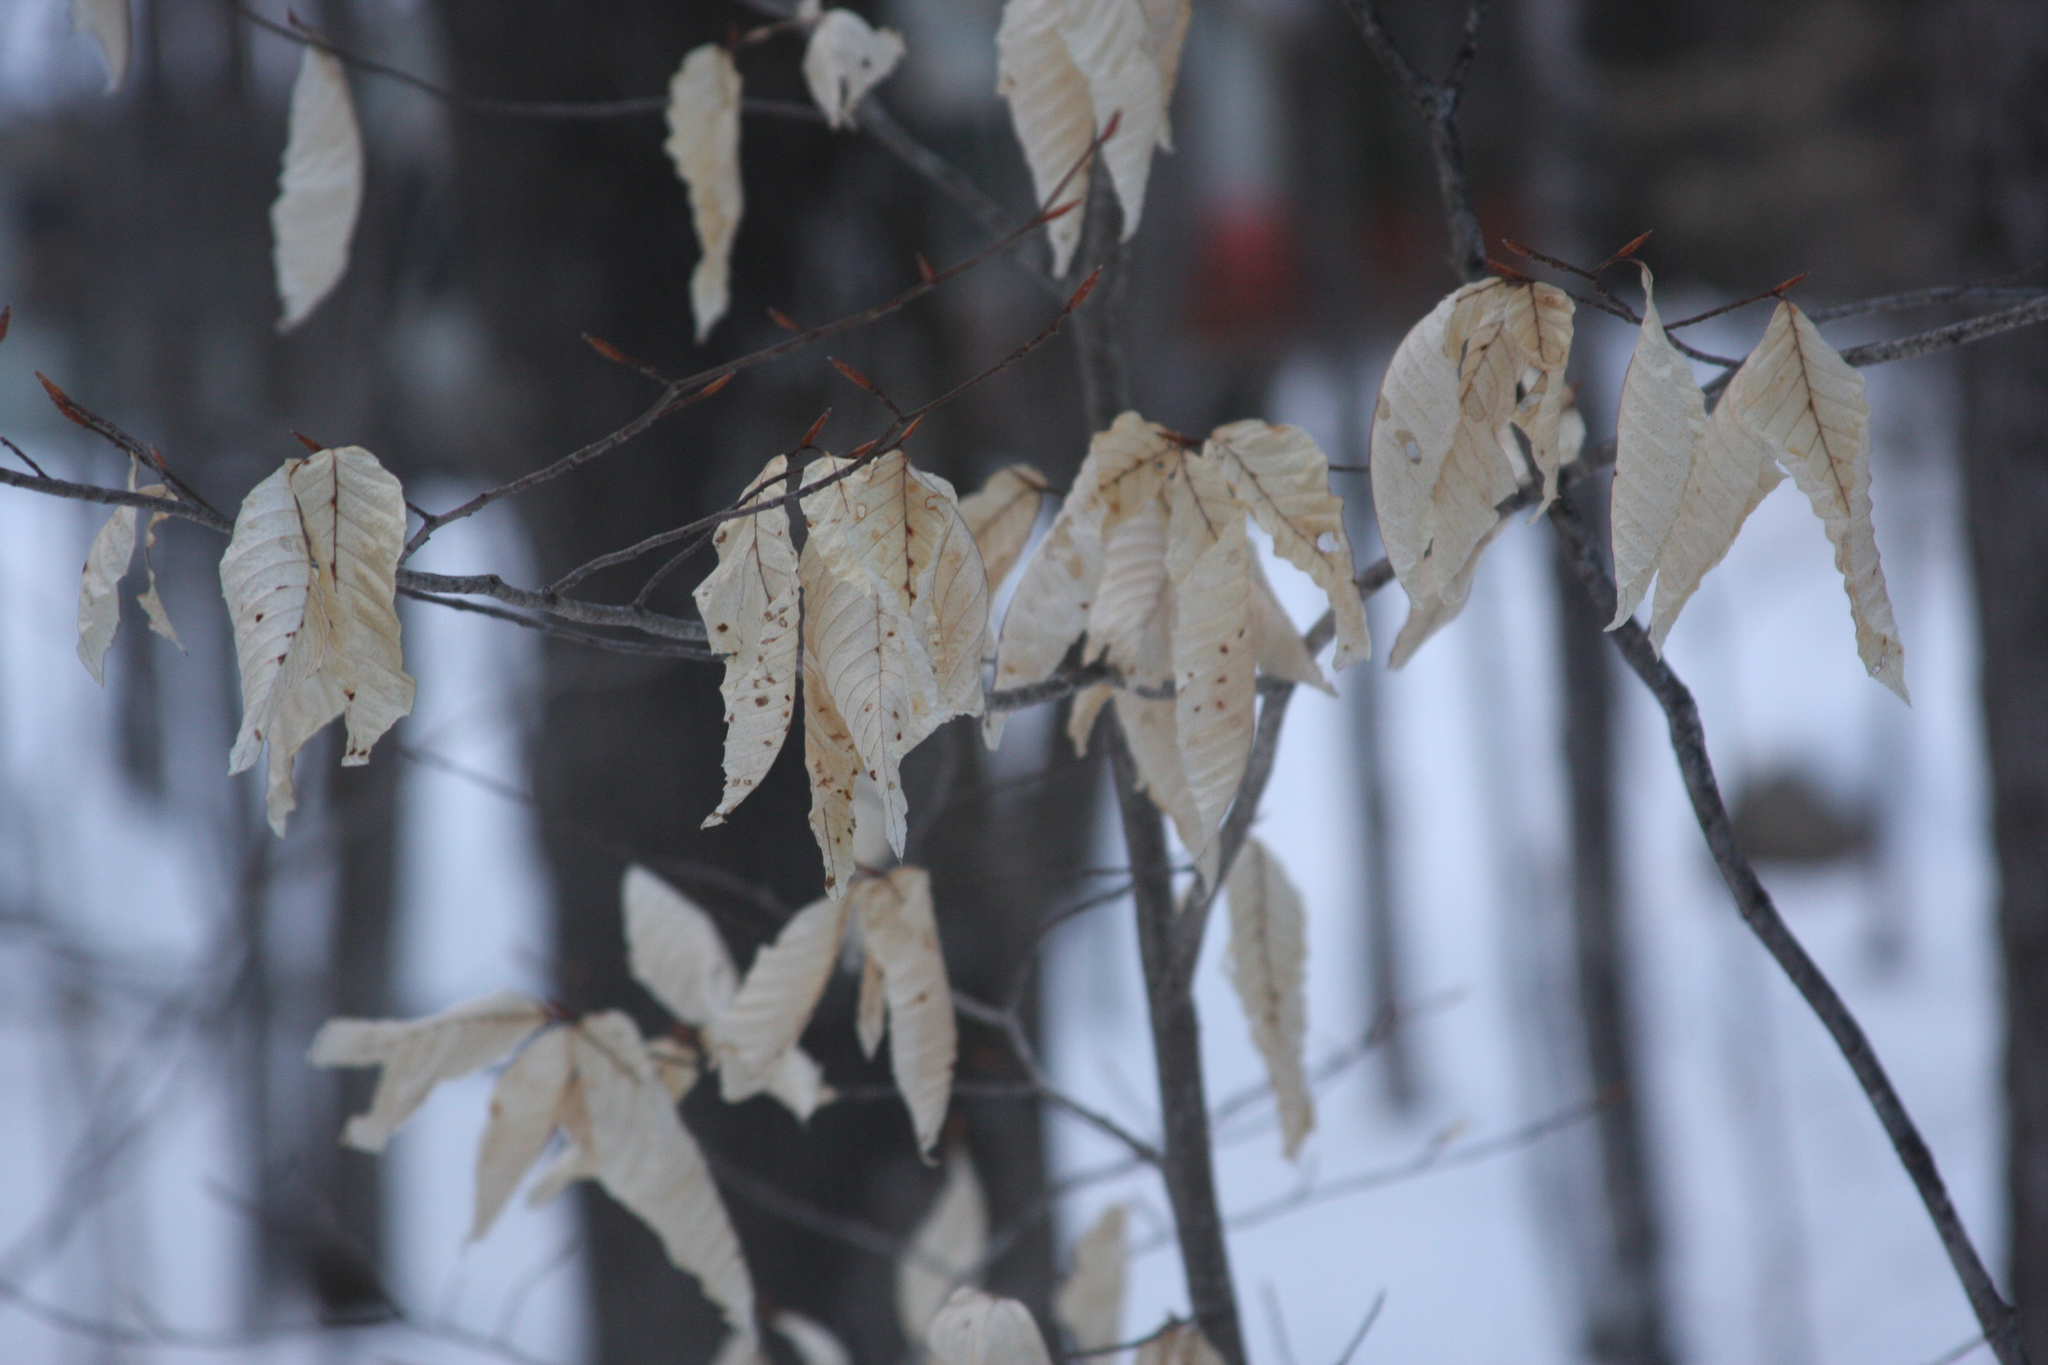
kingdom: Plantae
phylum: Tracheophyta
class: Magnoliopsida
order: Fagales
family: Fagaceae
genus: Fagus
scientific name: Fagus grandifolia
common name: American beech
